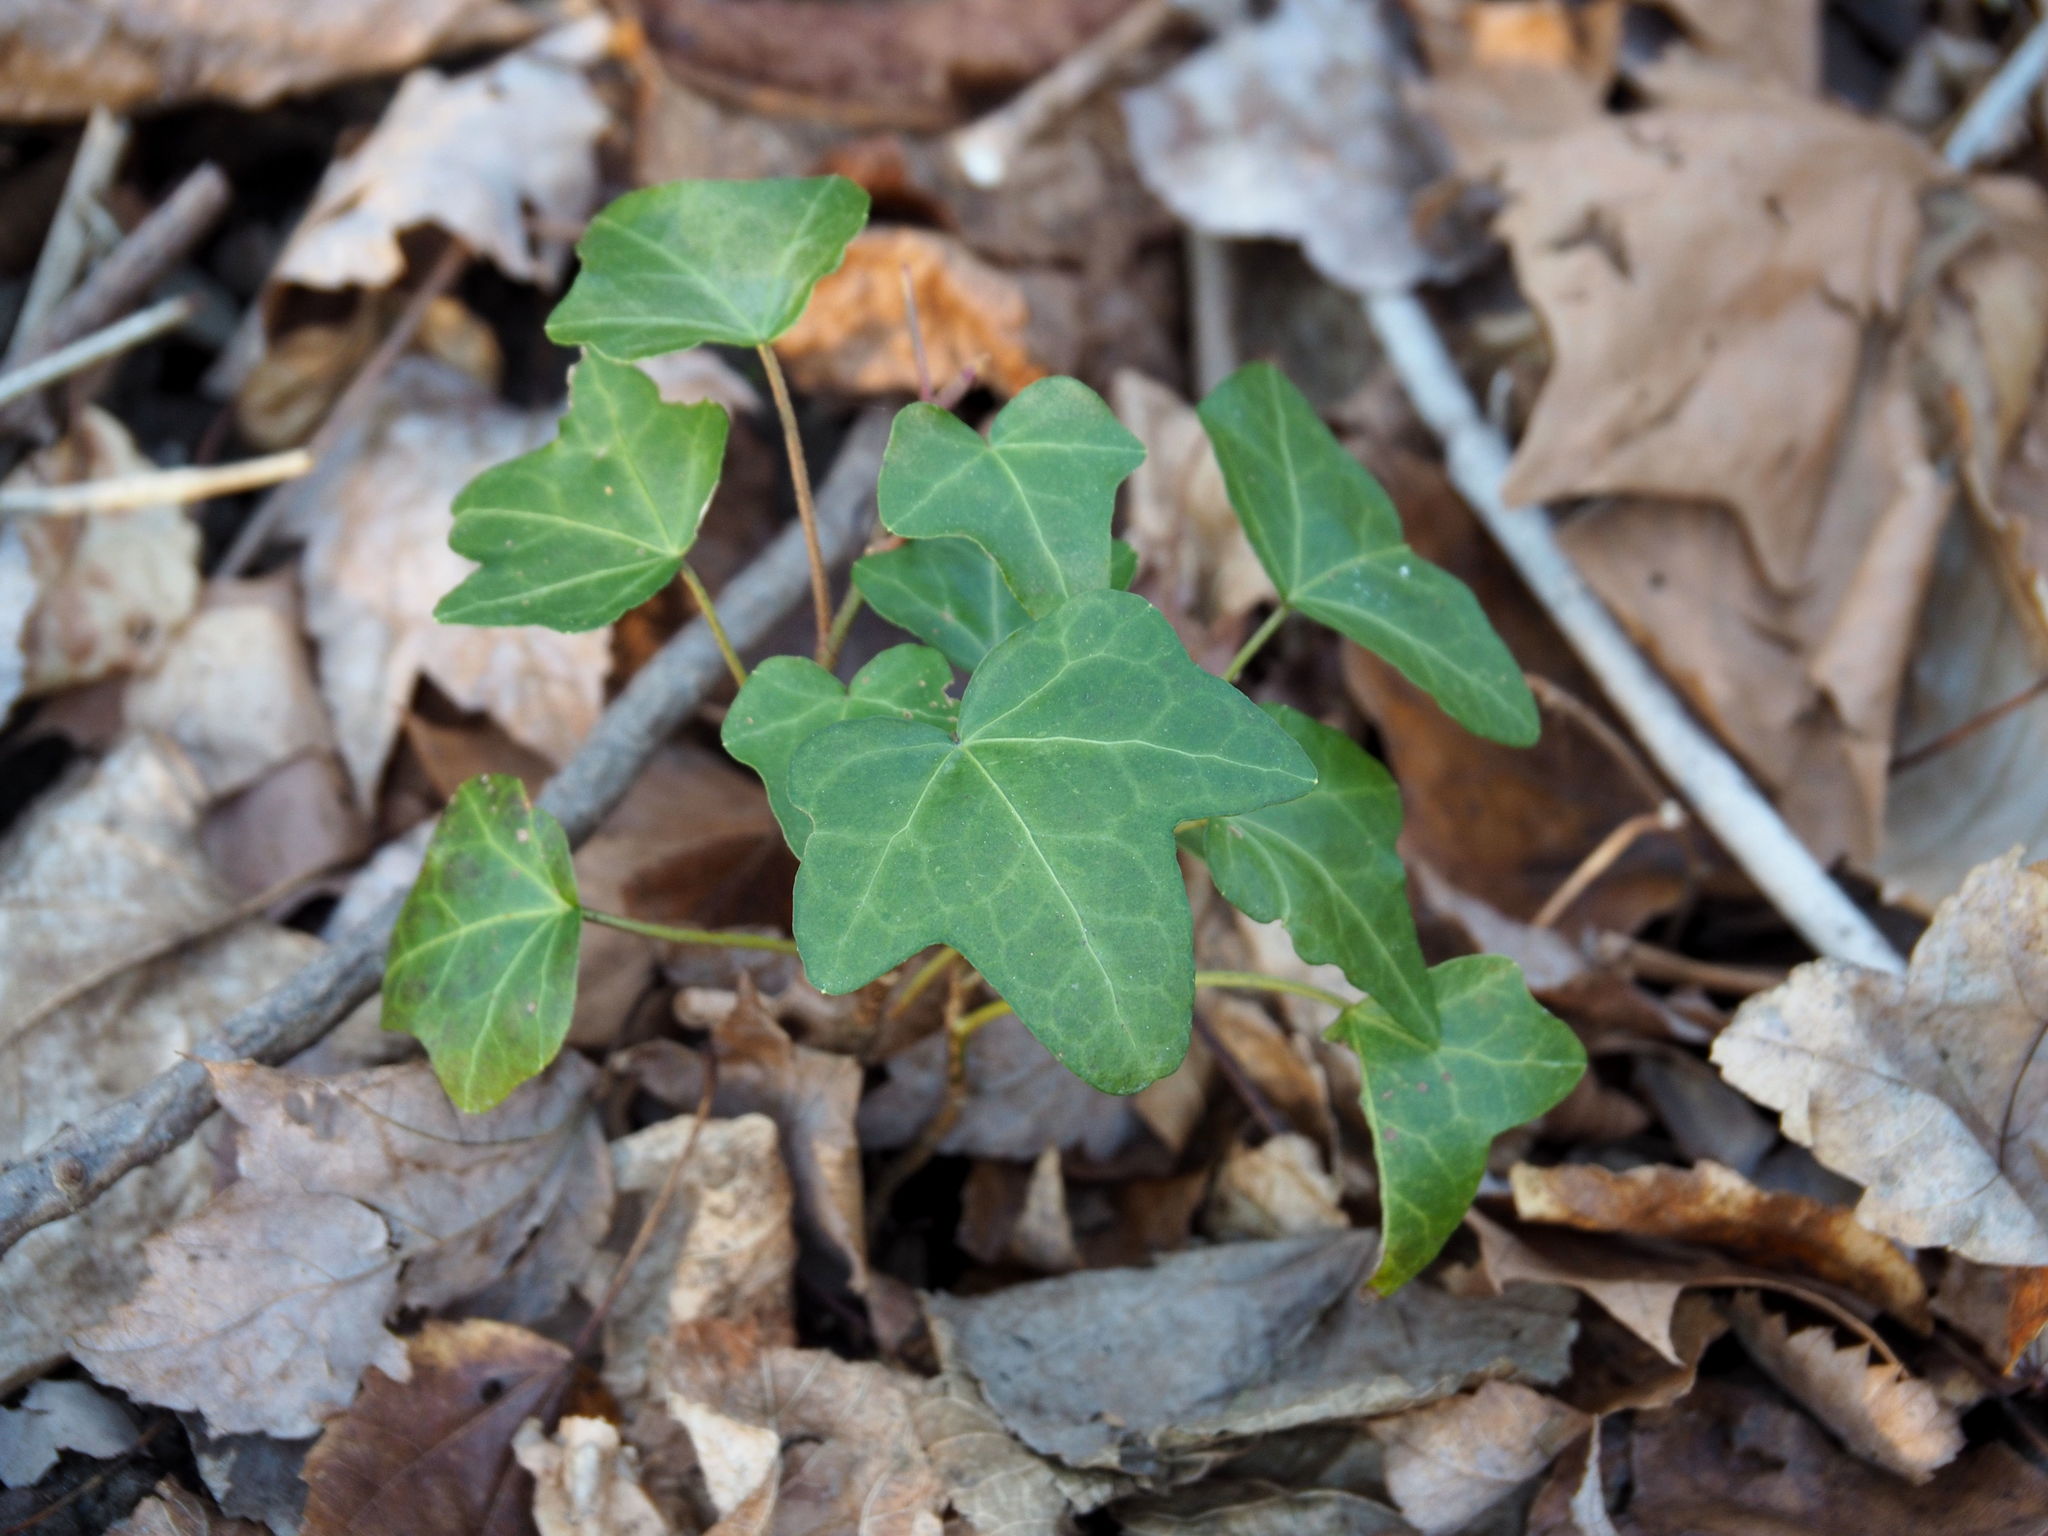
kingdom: Plantae
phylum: Tracheophyta
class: Magnoliopsida
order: Apiales
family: Araliaceae
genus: Hedera
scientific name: Hedera helix
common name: Ivy
